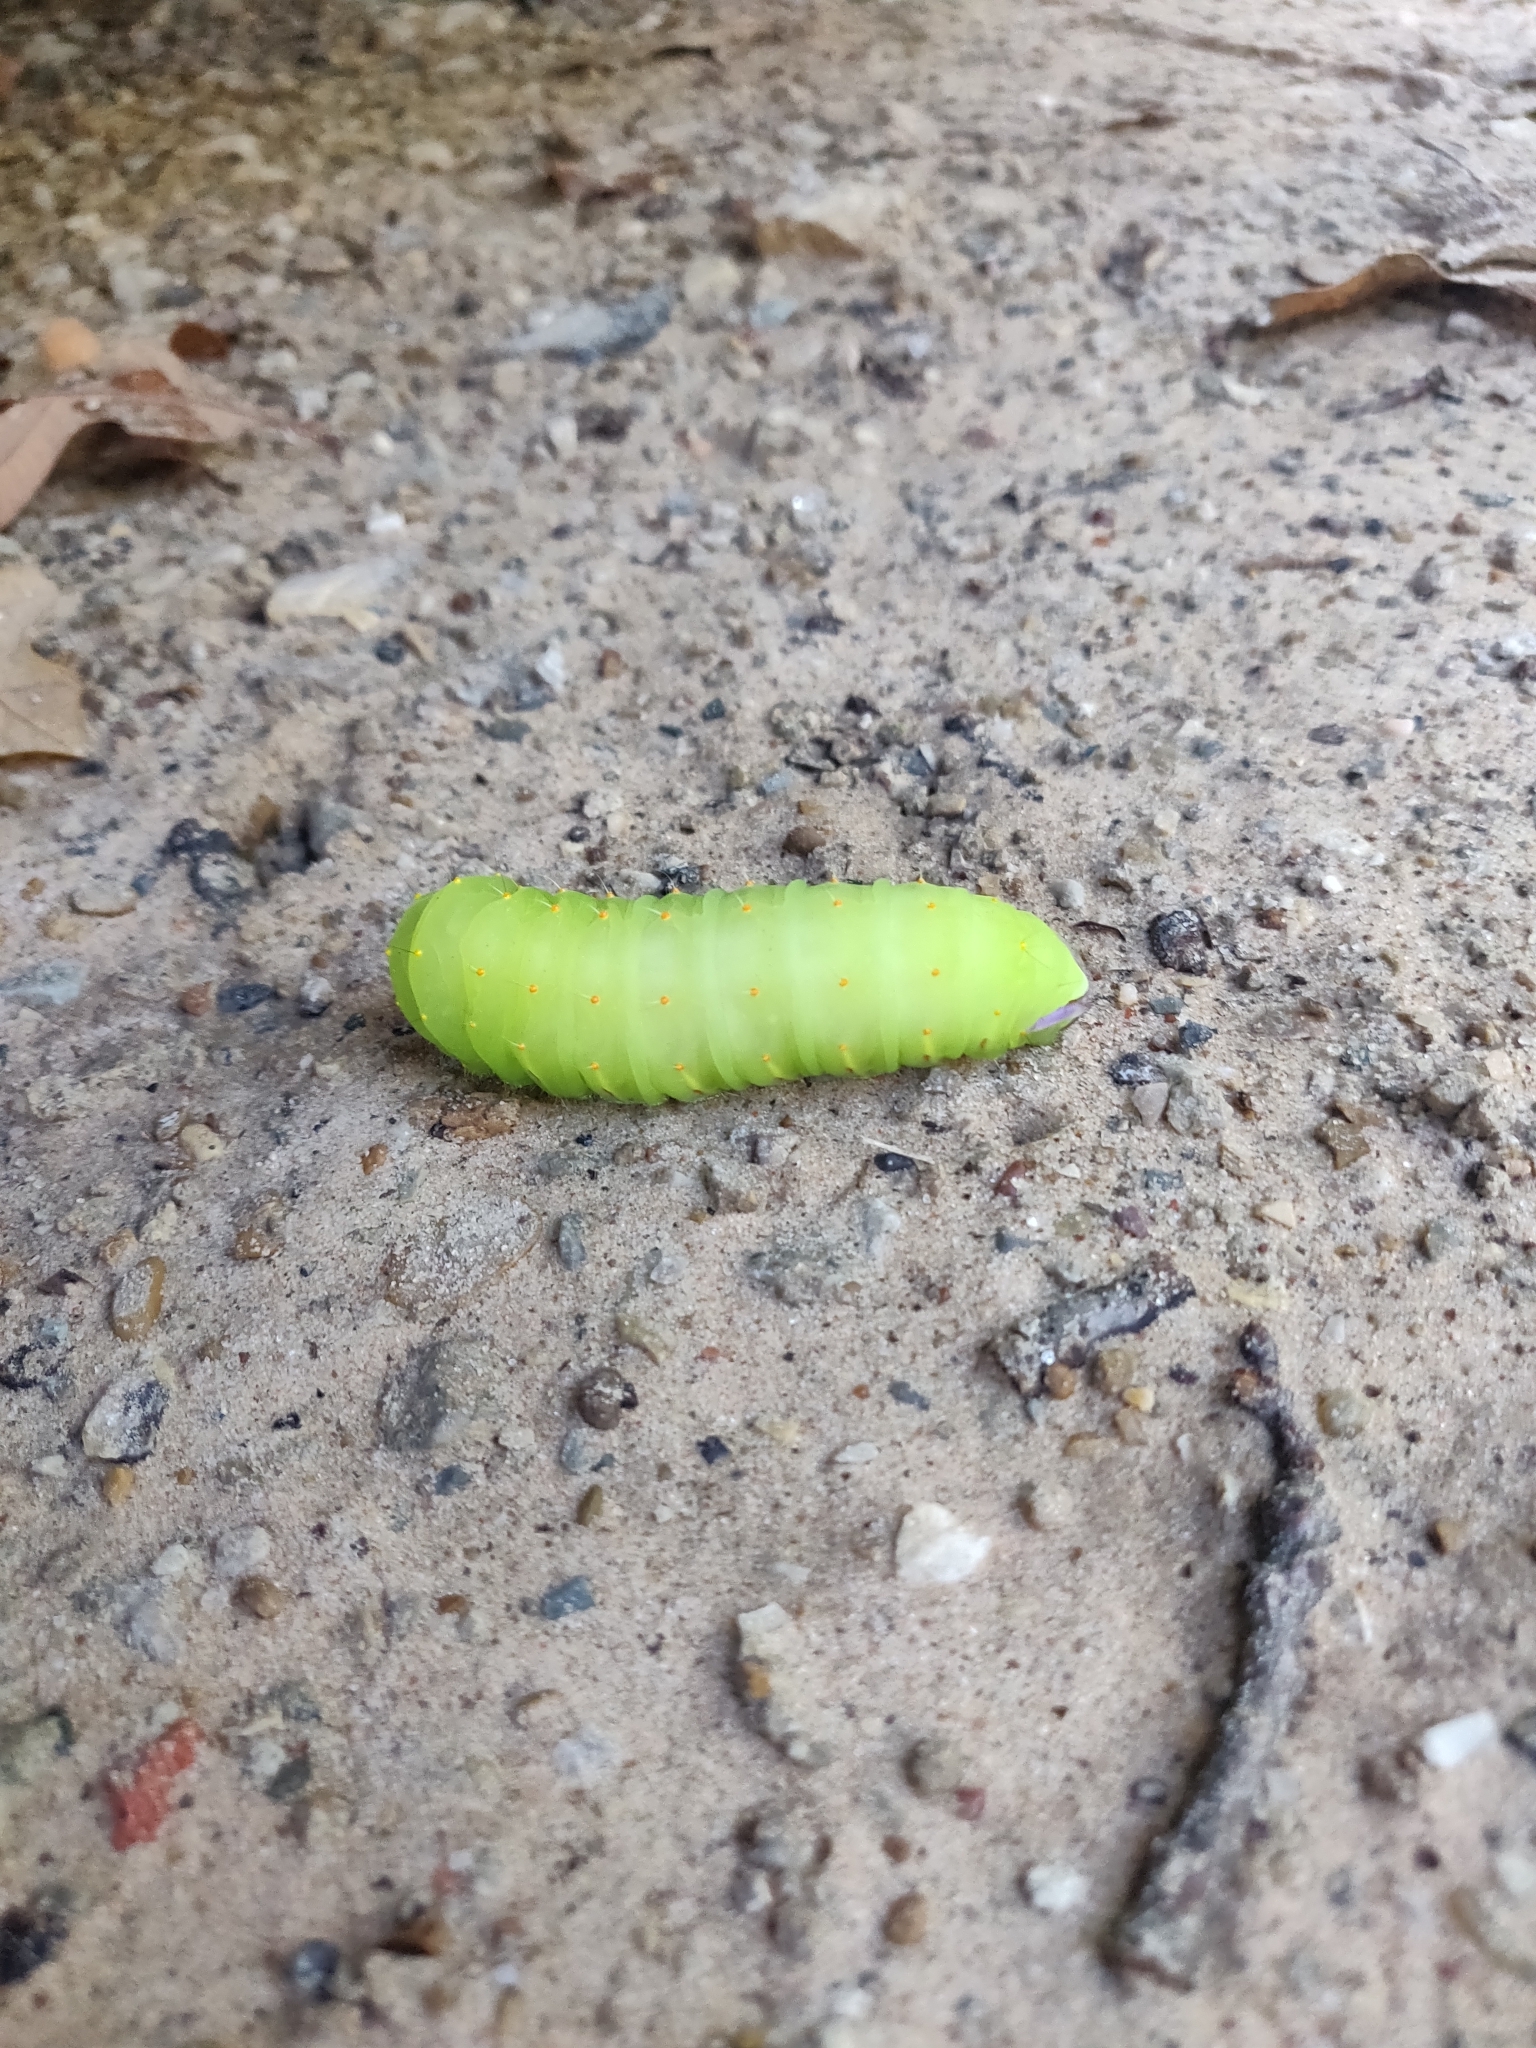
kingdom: Animalia
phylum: Arthropoda
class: Insecta
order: Lepidoptera
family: Saturniidae
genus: Antheraea
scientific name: Antheraea polyphemus
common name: Polyphemus moth
